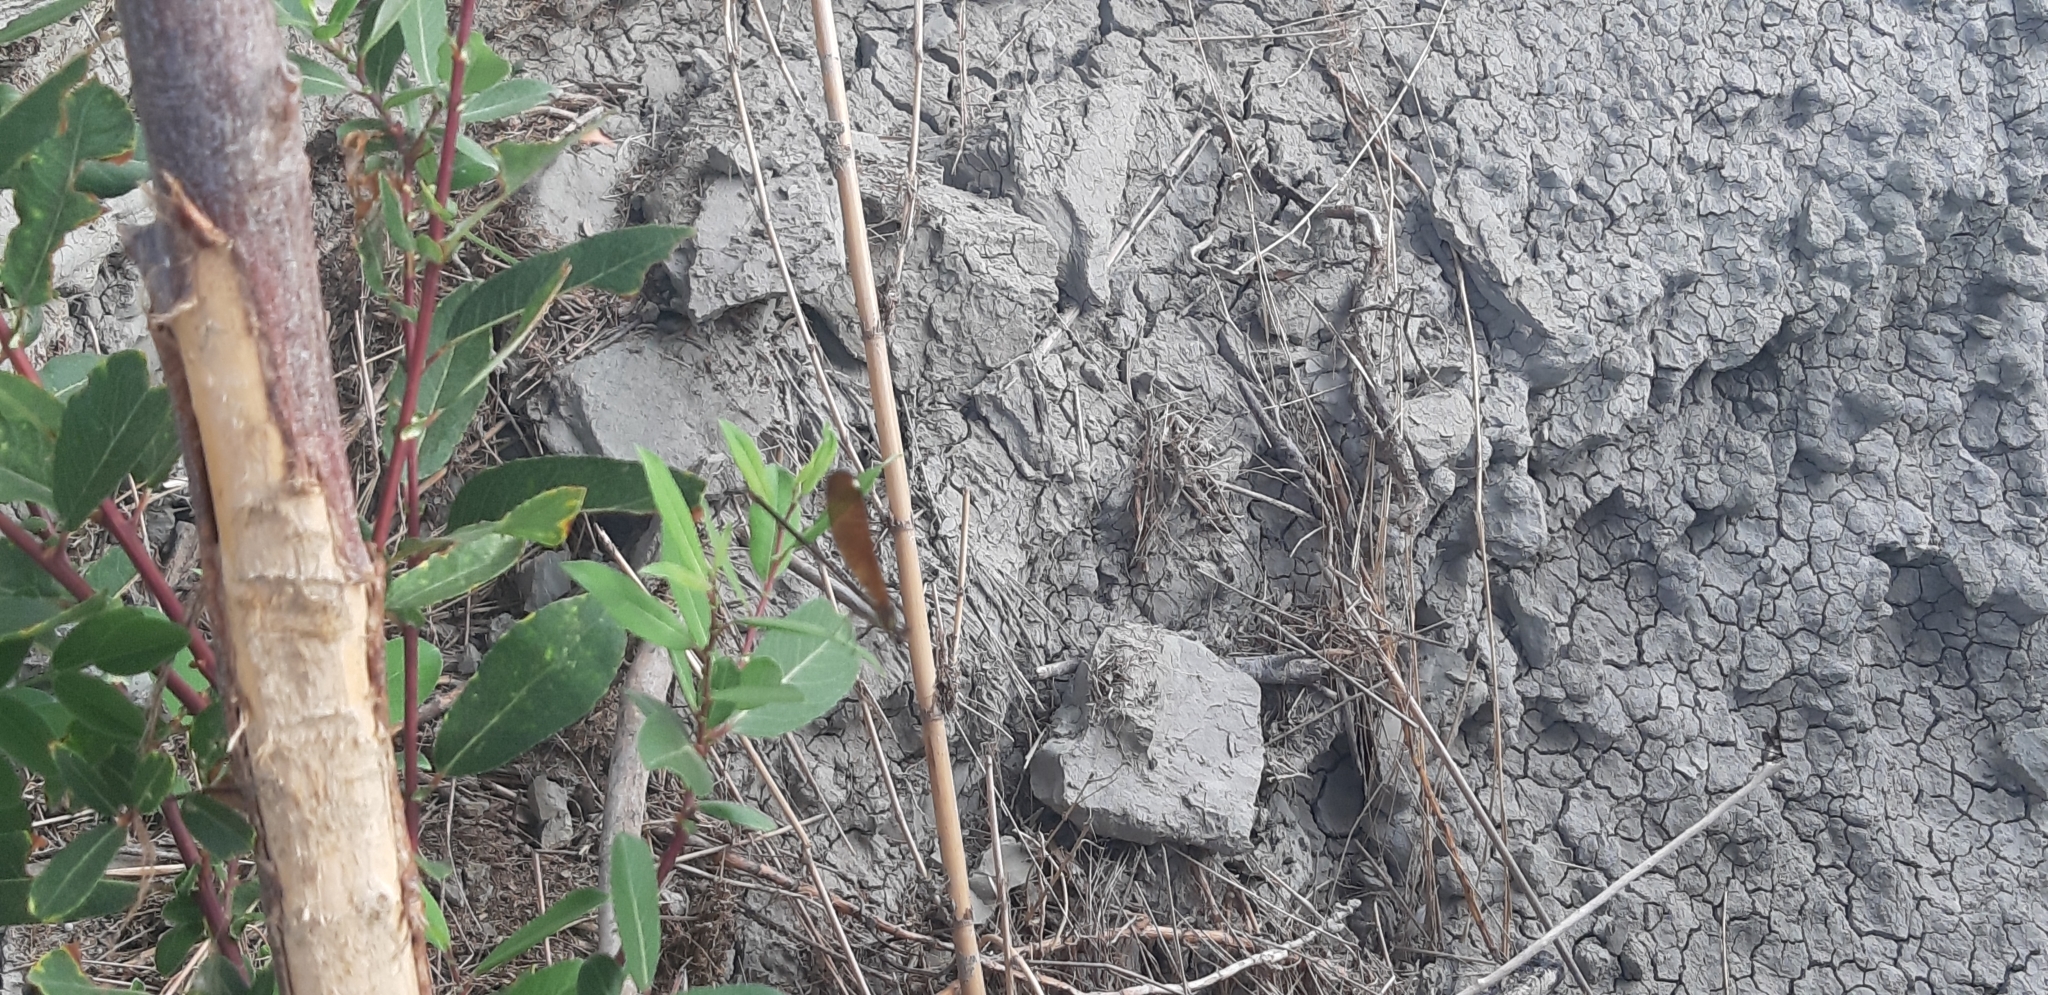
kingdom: Animalia
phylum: Arthropoda
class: Insecta
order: Odonata
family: Calopterygidae
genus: Calopteryx
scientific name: Calopteryx haemorrhoidalis
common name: Copper demoiselle
